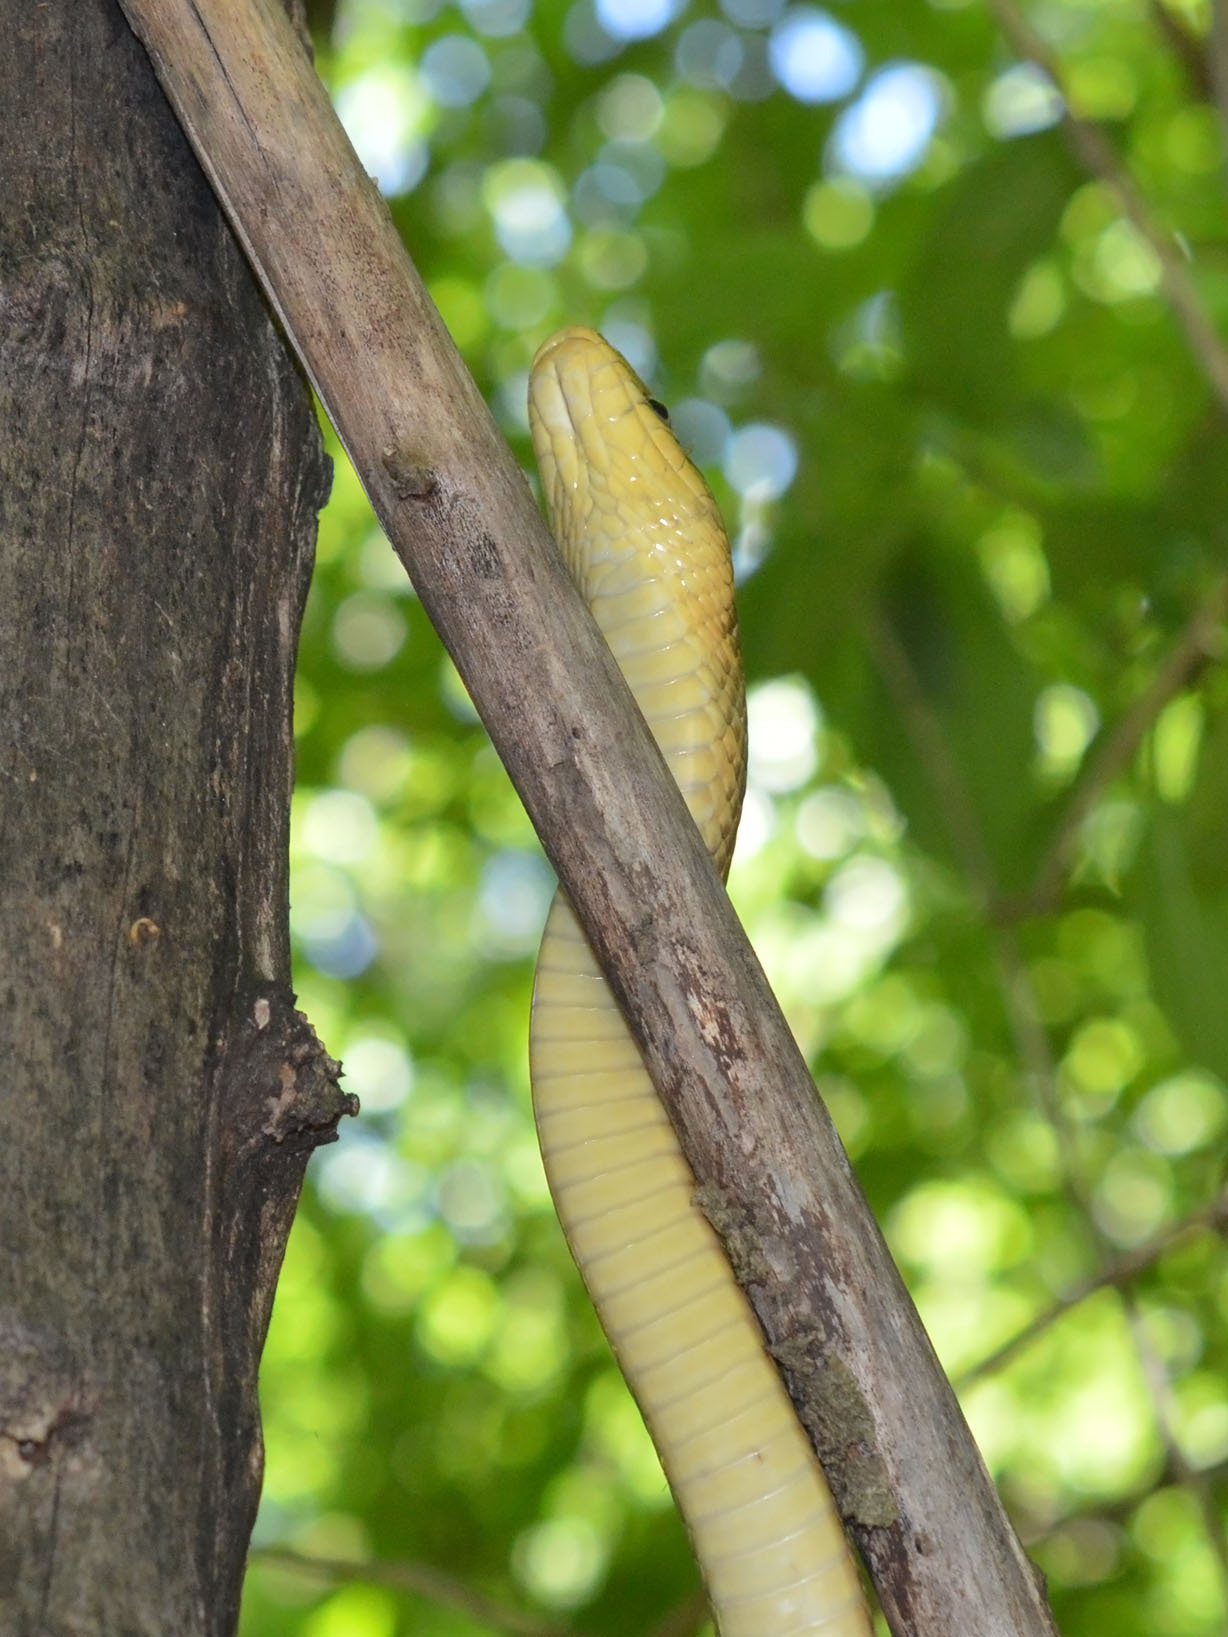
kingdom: Animalia
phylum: Chordata
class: Squamata
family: Colubridae
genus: Zamenis
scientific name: Zamenis longissimus
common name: Aesculapean snake
